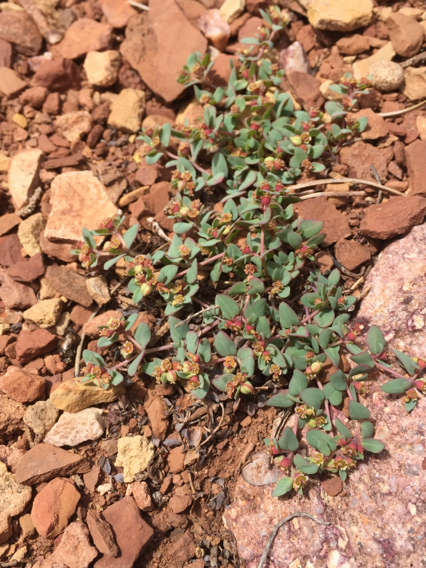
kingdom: Plantae
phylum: Tracheophyta
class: Magnoliopsida
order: Malpighiales
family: Euphorbiaceae
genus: Euphorbia
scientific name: Euphorbia fendleri
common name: Fendler's euphorbia
